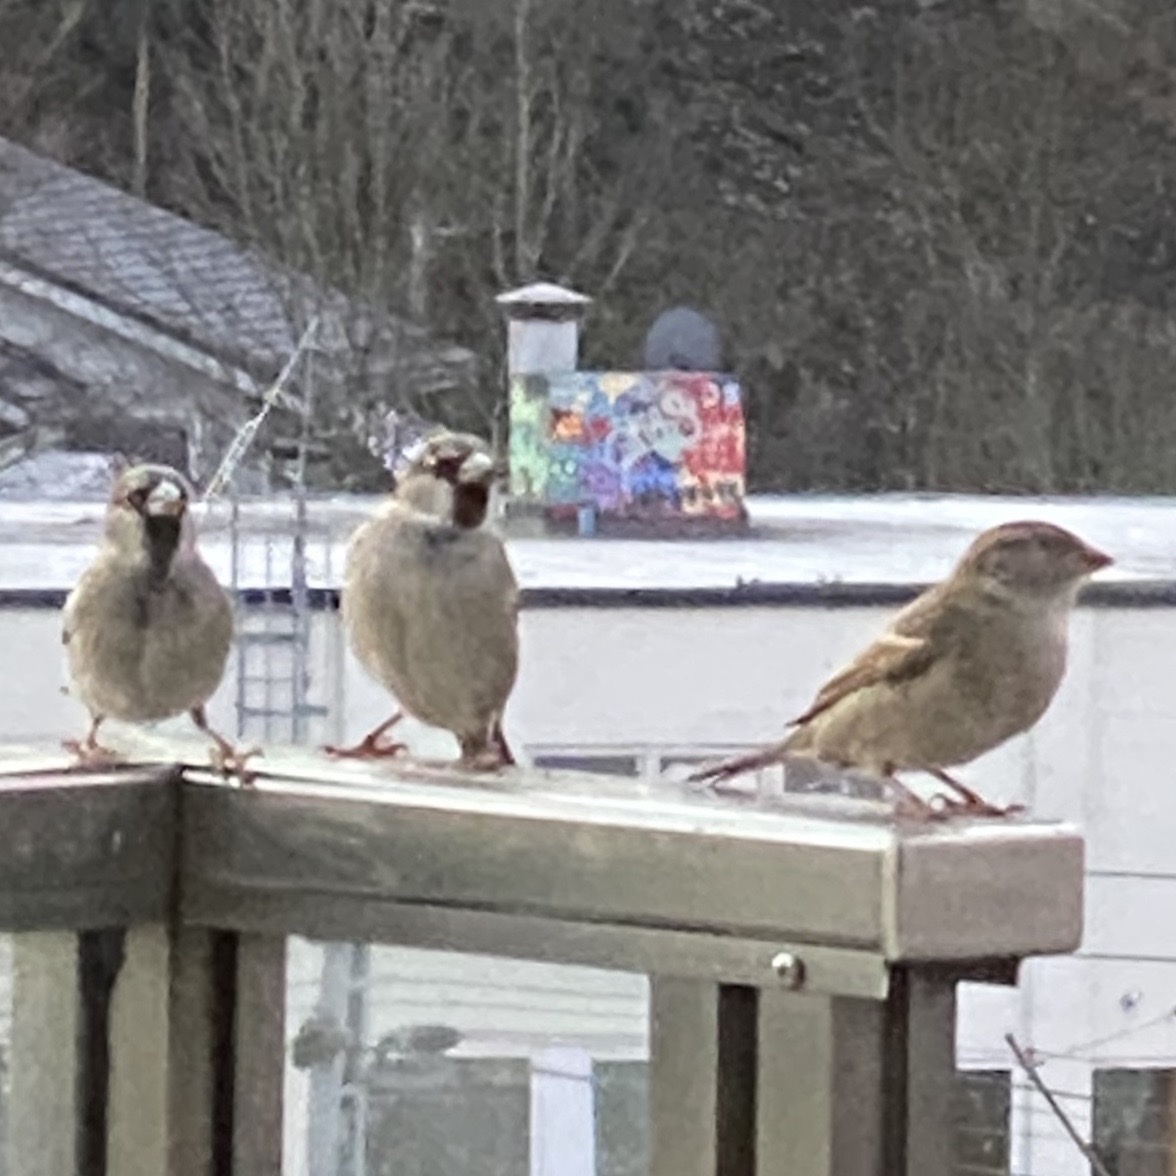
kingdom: Animalia
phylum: Chordata
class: Aves
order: Passeriformes
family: Passeridae
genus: Passer
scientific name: Passer domesticus
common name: House sparrow
